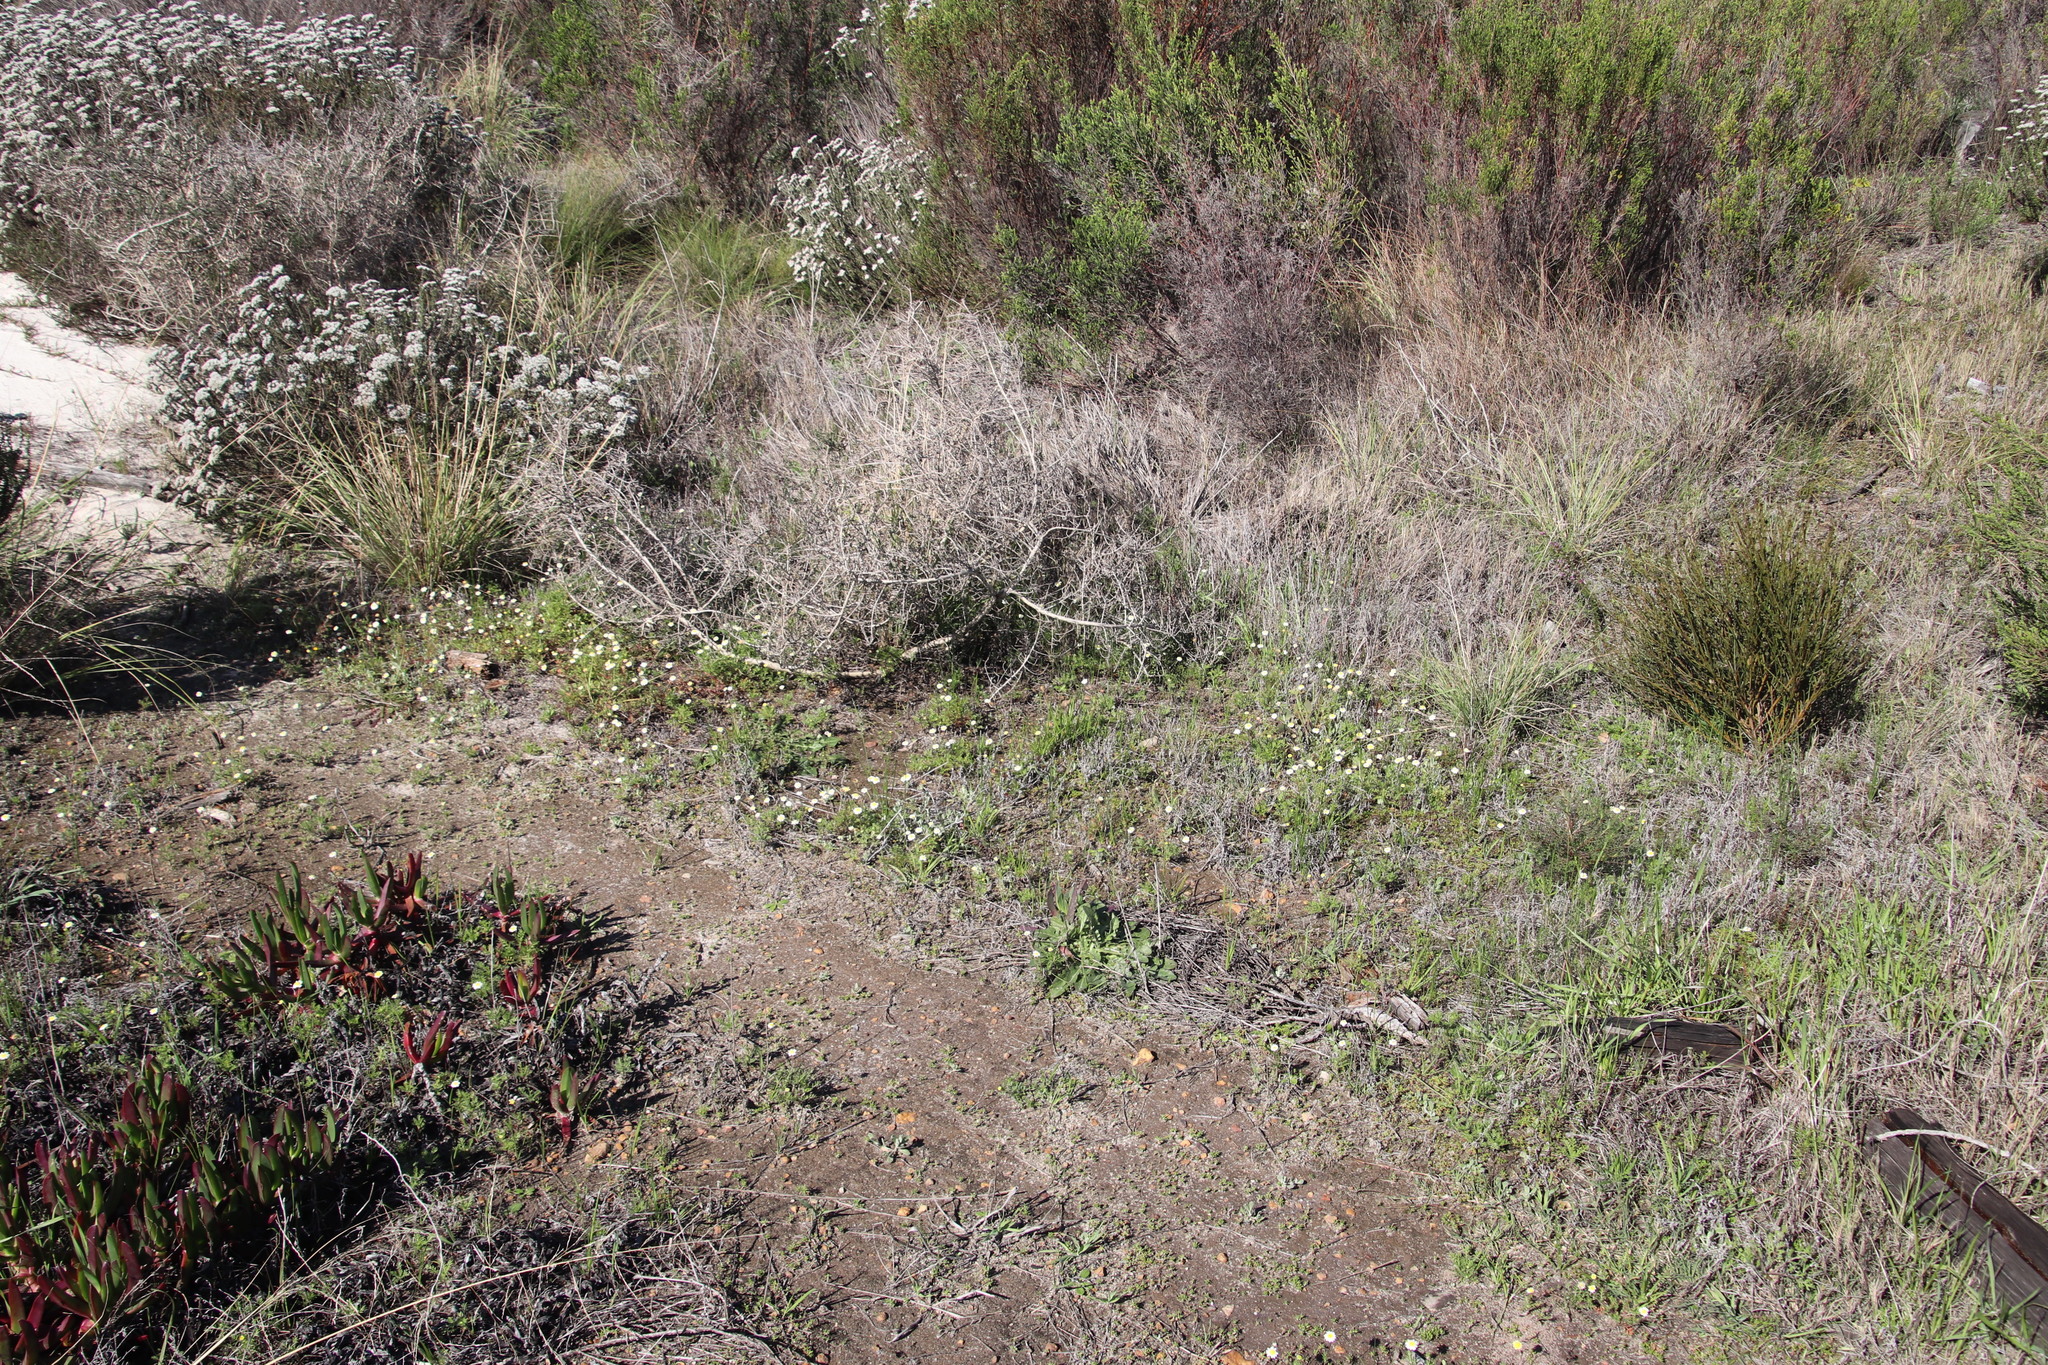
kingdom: Plantae
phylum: Tracheophyta
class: Magnoliopsida
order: Asterales
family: Asteraceae
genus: Cotula
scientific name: Cotula turbinata
